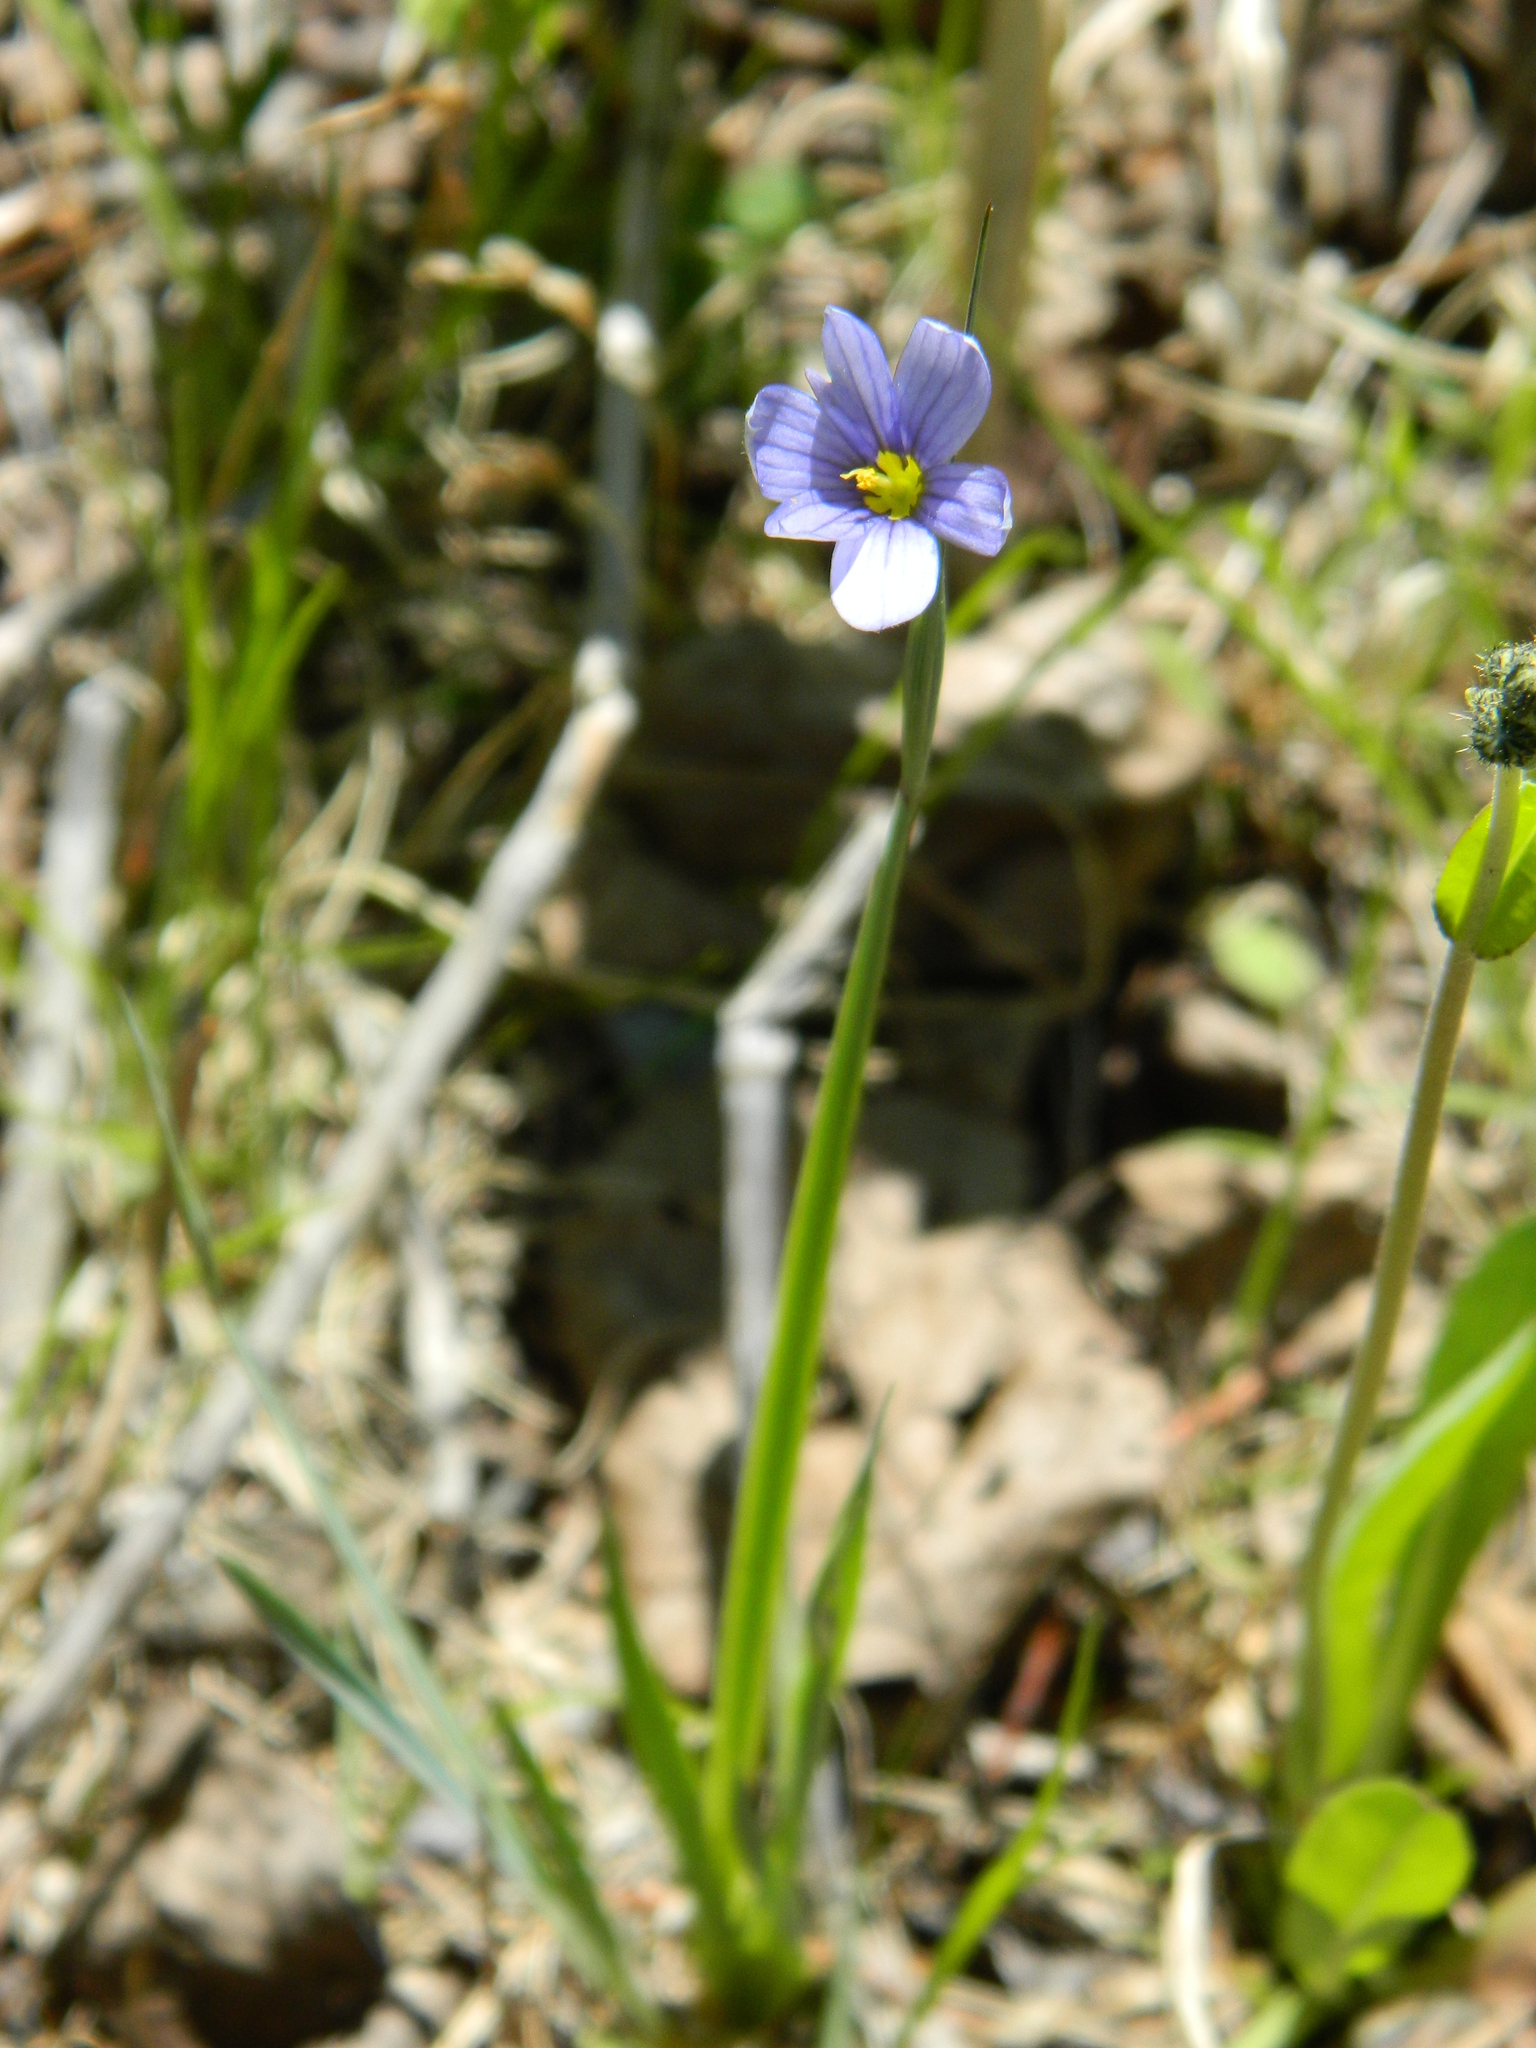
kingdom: Plantae
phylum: Tracheophyta
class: Liliopsida
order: Asparagales
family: Iridaceae
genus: Sisyrinchium
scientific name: Sisyrinchium montanum
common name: American blue-eyed-grass
